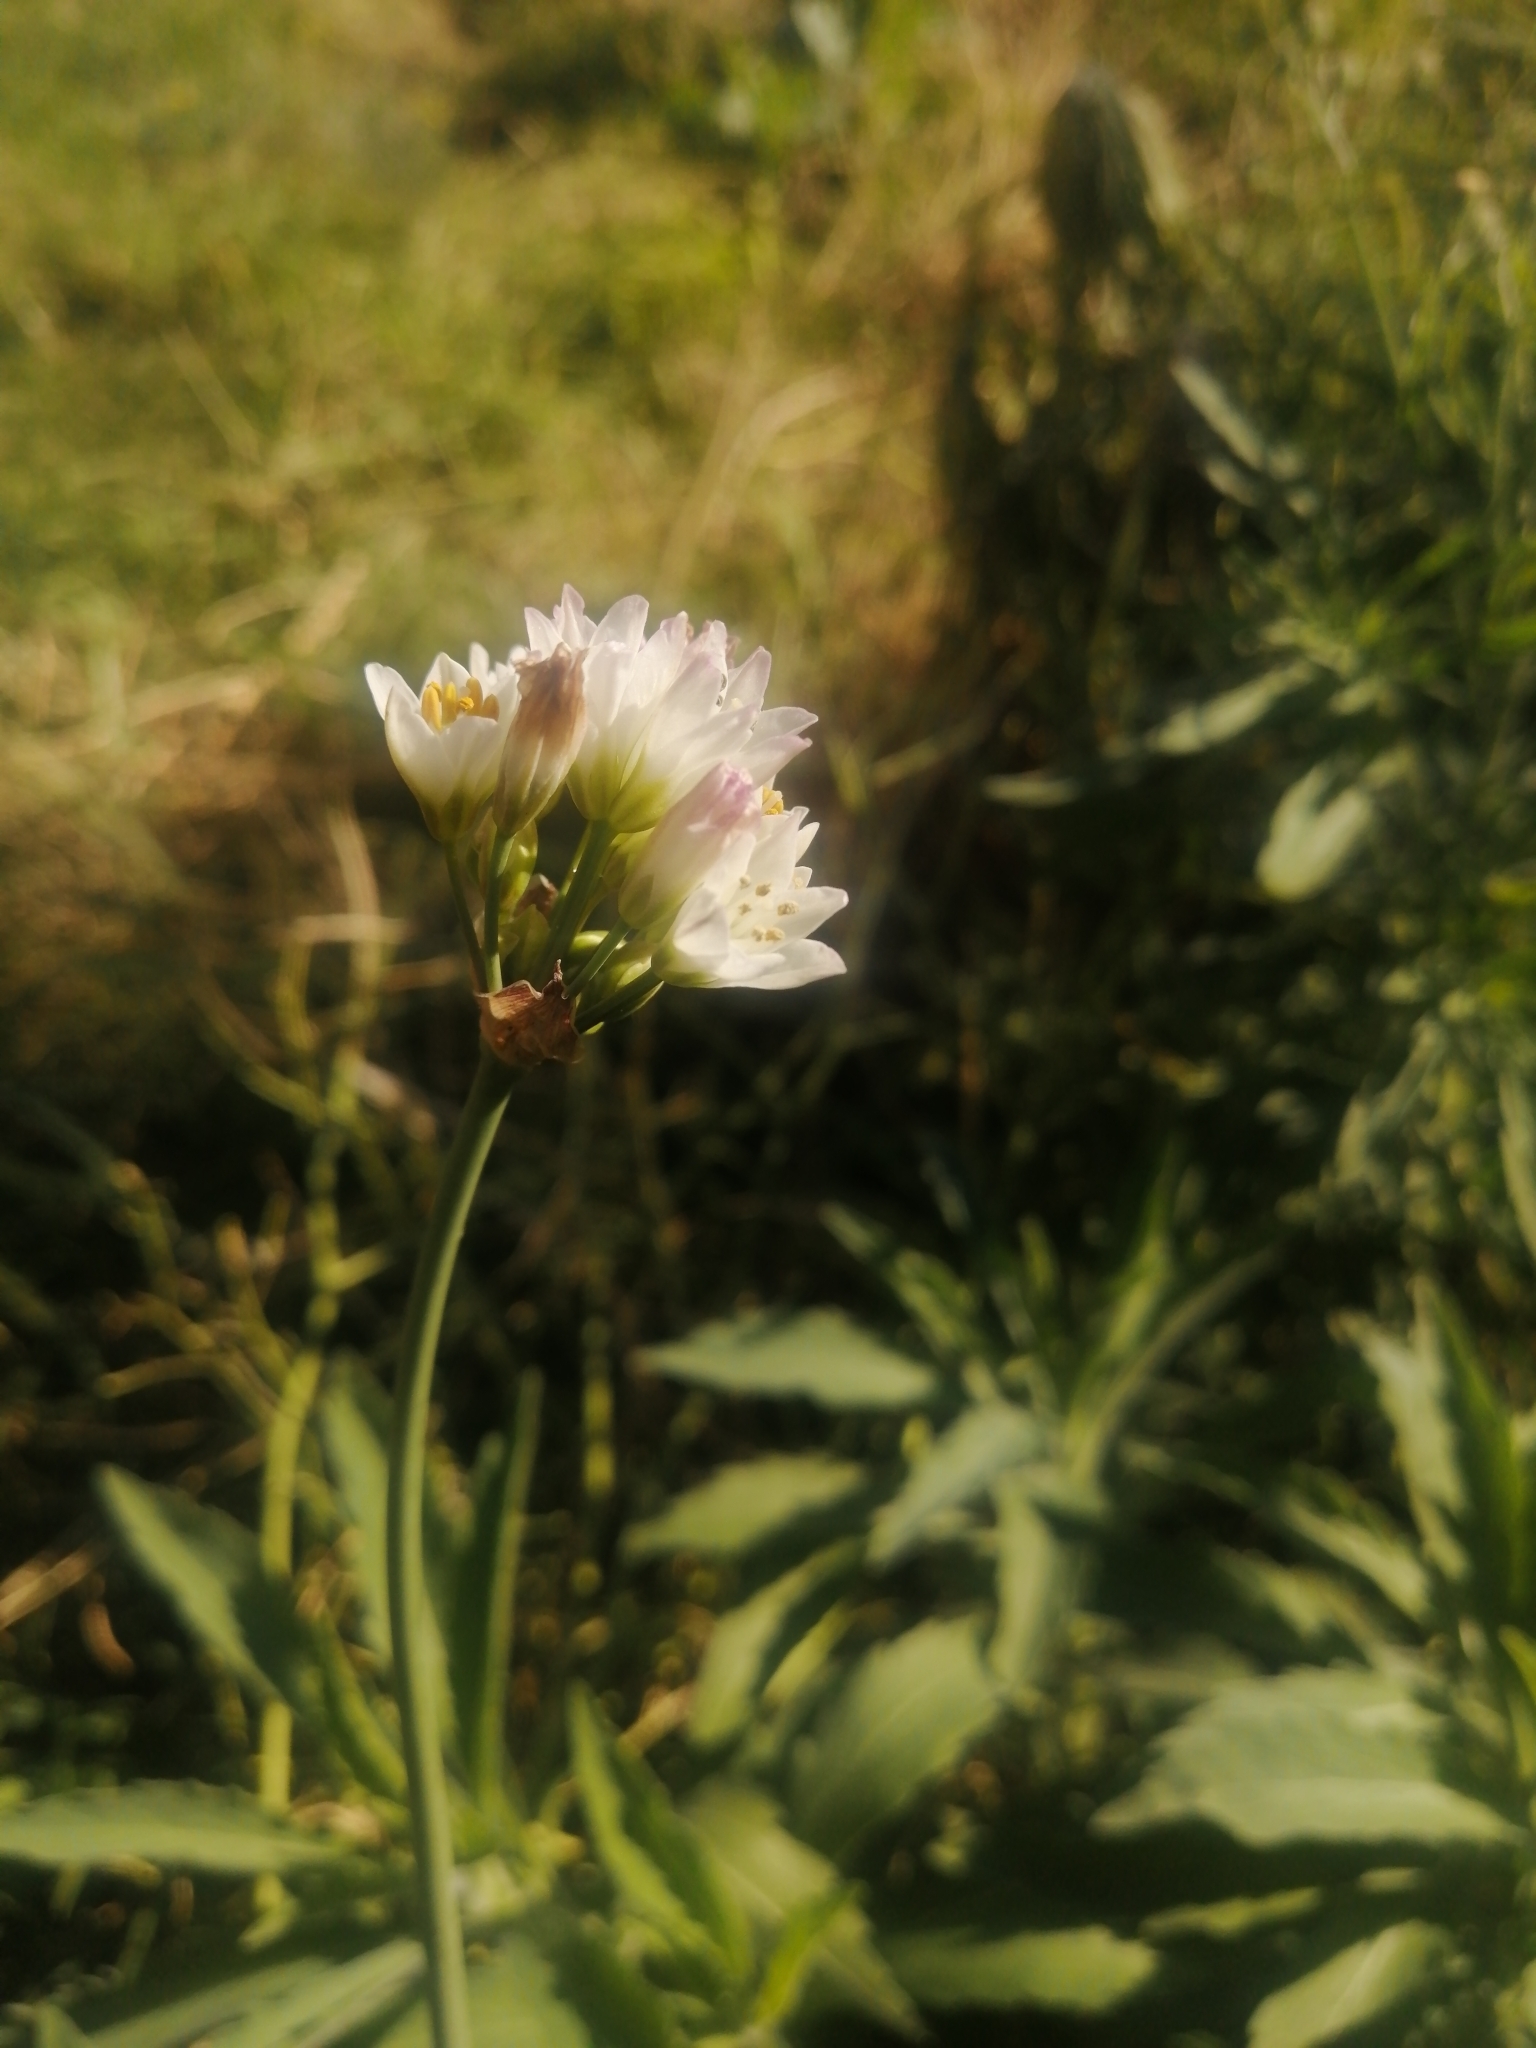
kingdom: Plantae
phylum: Tracheophyta
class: Liliopsida
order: Asparagales
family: Amaryllidaceae
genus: Nothoscordum
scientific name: Nothoscordum gracile
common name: Slender false garlic
